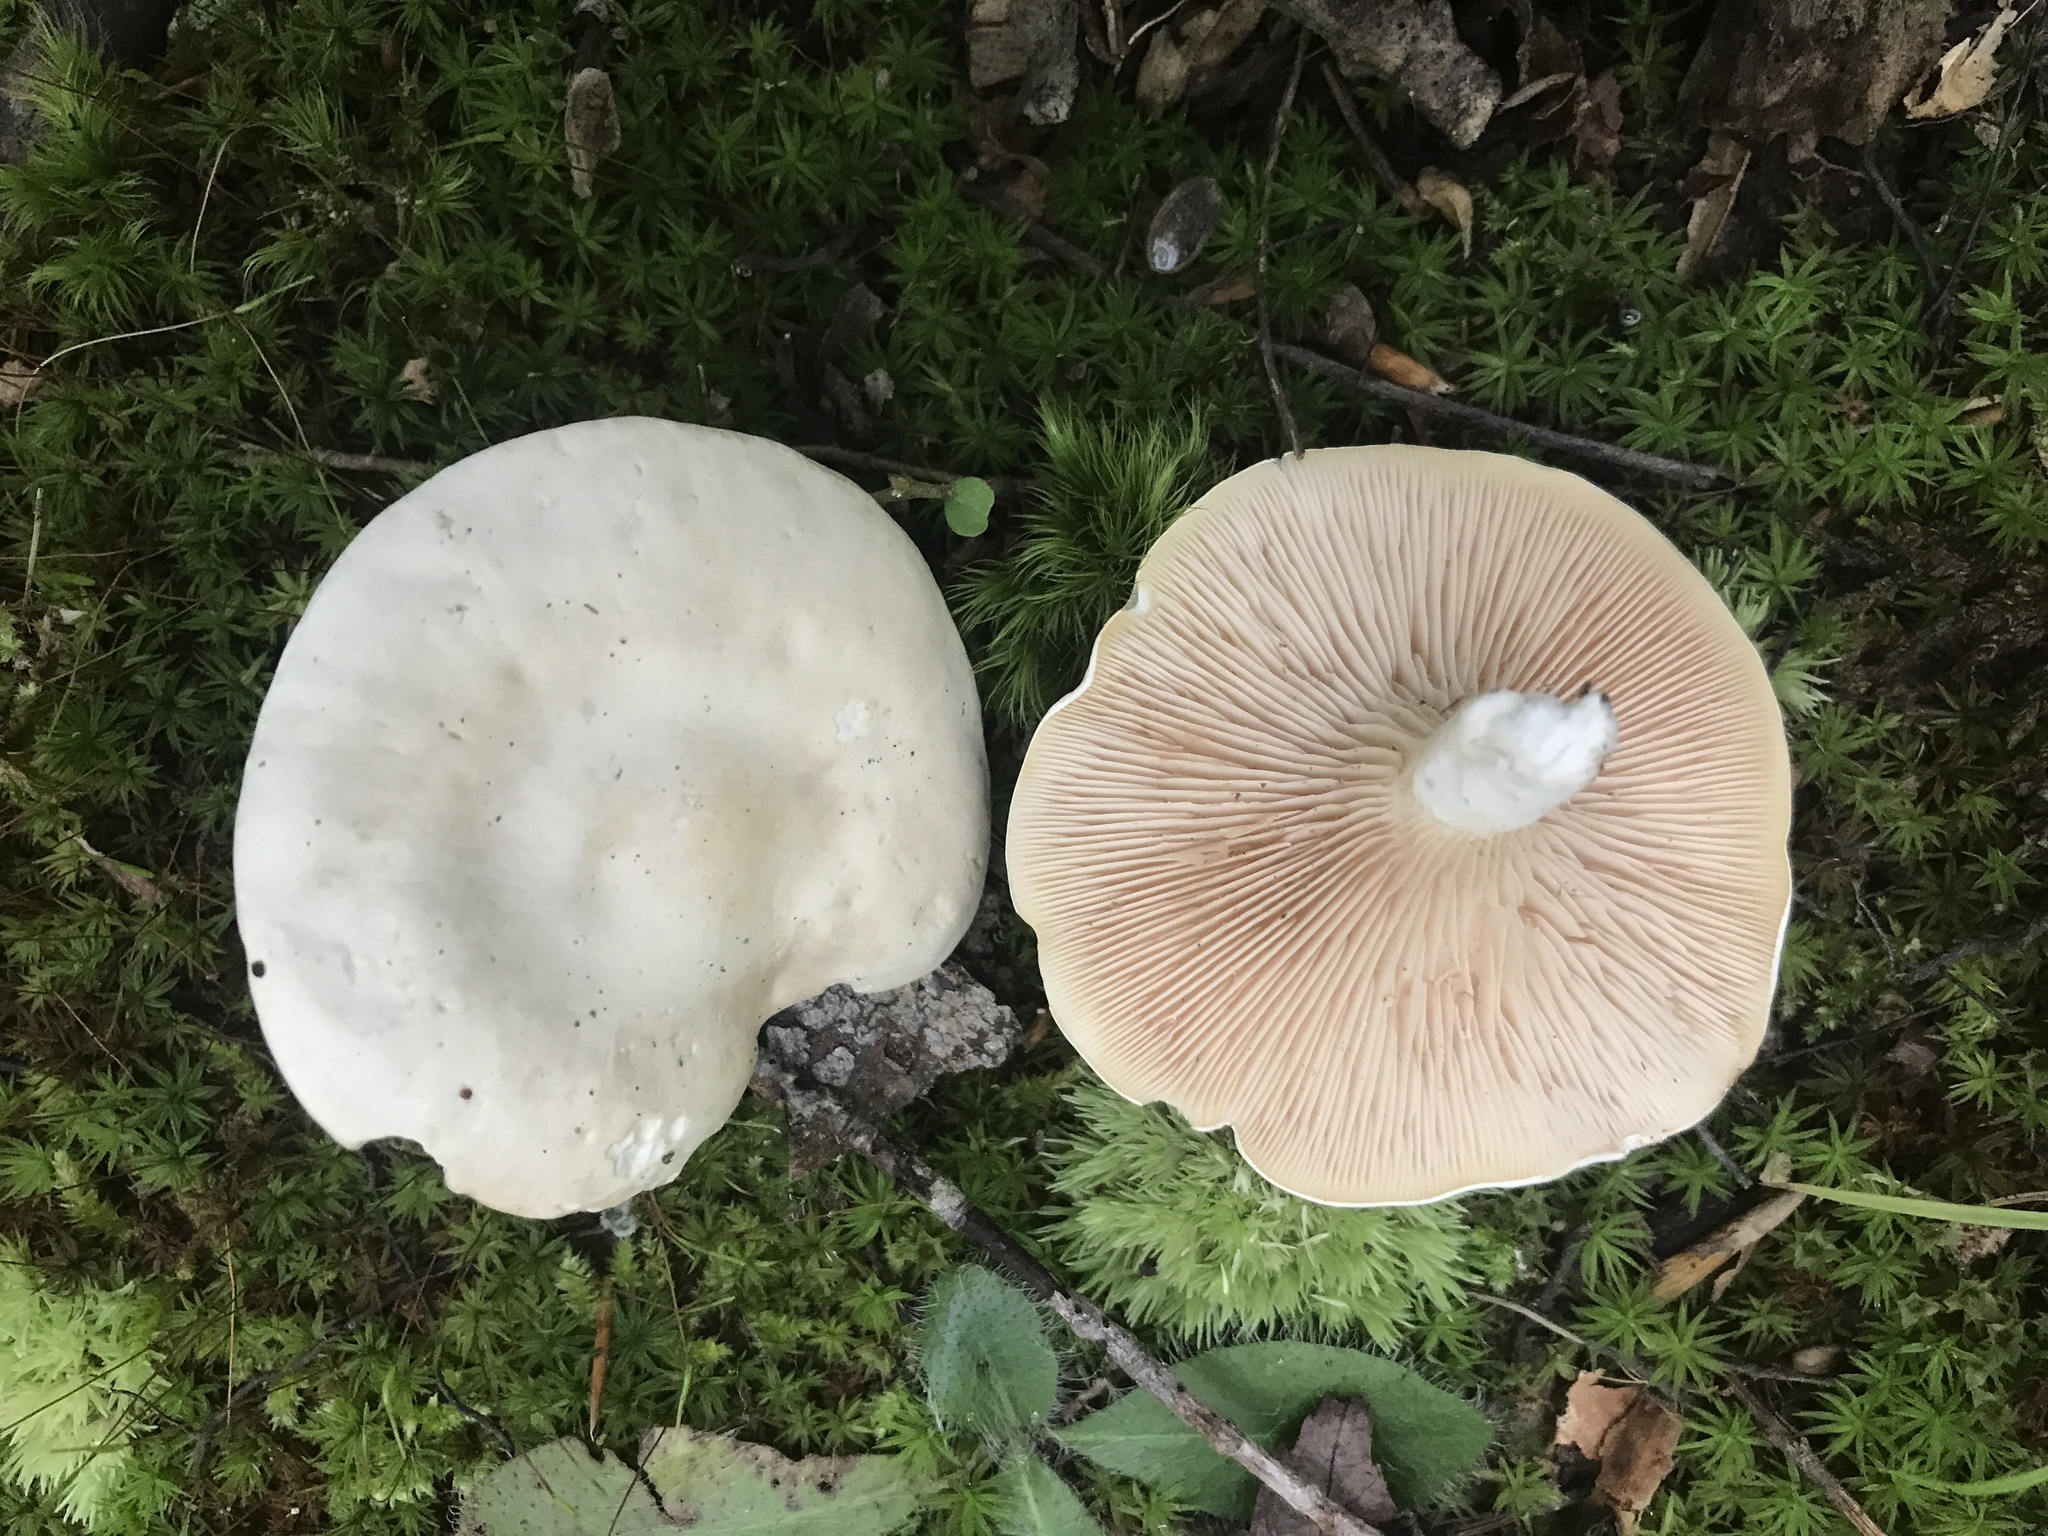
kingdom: Fungi
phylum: Basidiomycota
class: Agaricomycetes
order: Agaricales
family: Entolomataceae
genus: Clitopilus
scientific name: Clitopilus prunulus
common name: The miller
